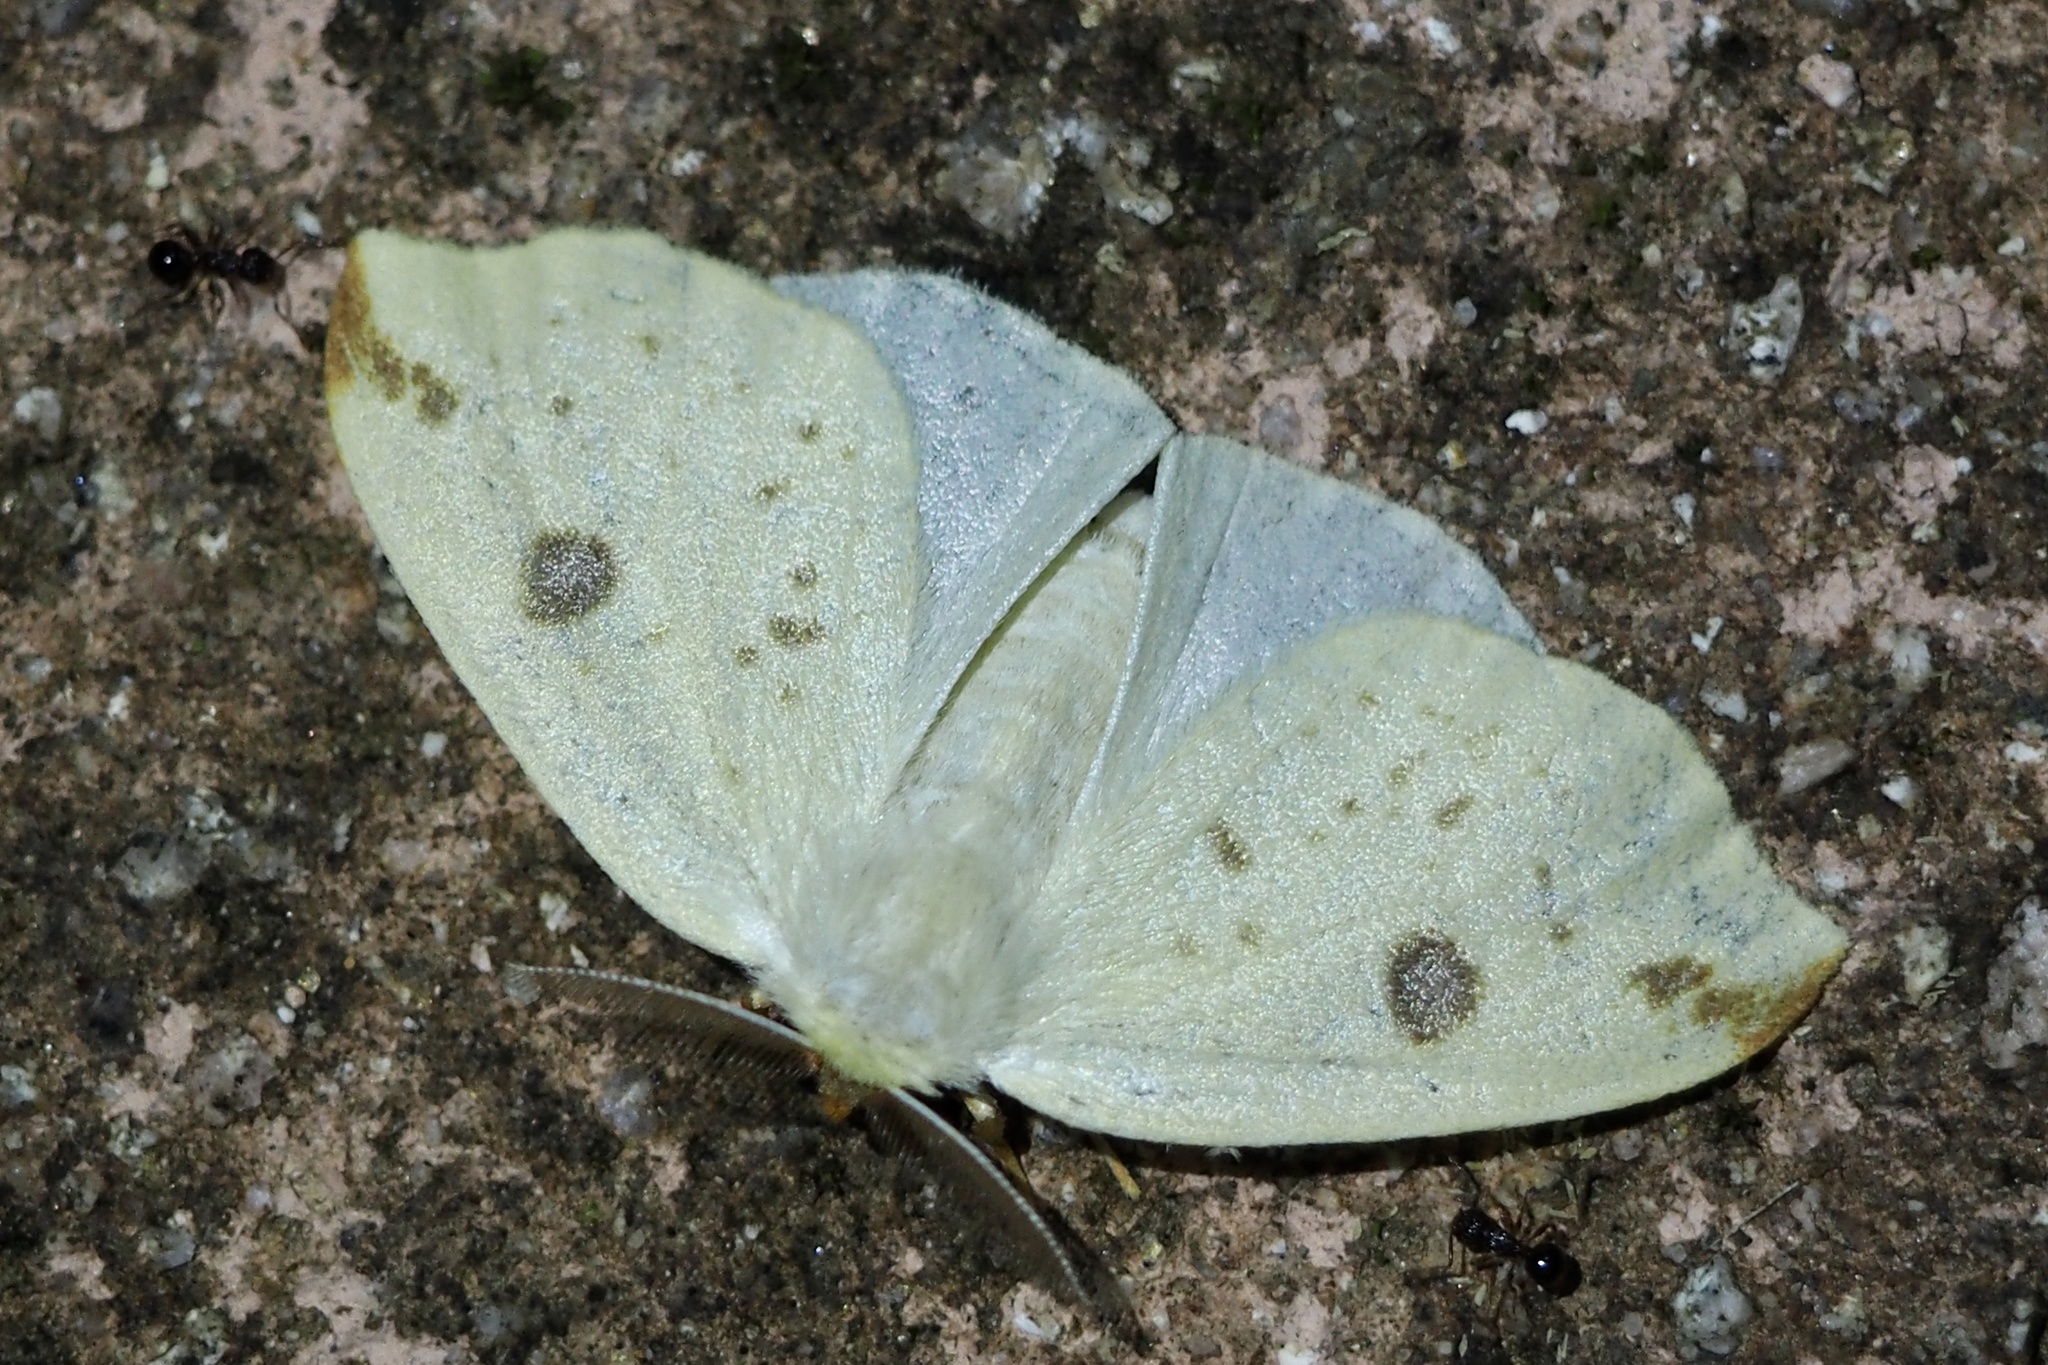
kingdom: Animalia
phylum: Arthropoda
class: Insecta
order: Lepidoptera
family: Erebidae
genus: Topomesoides
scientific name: Topomesoides jonasii
